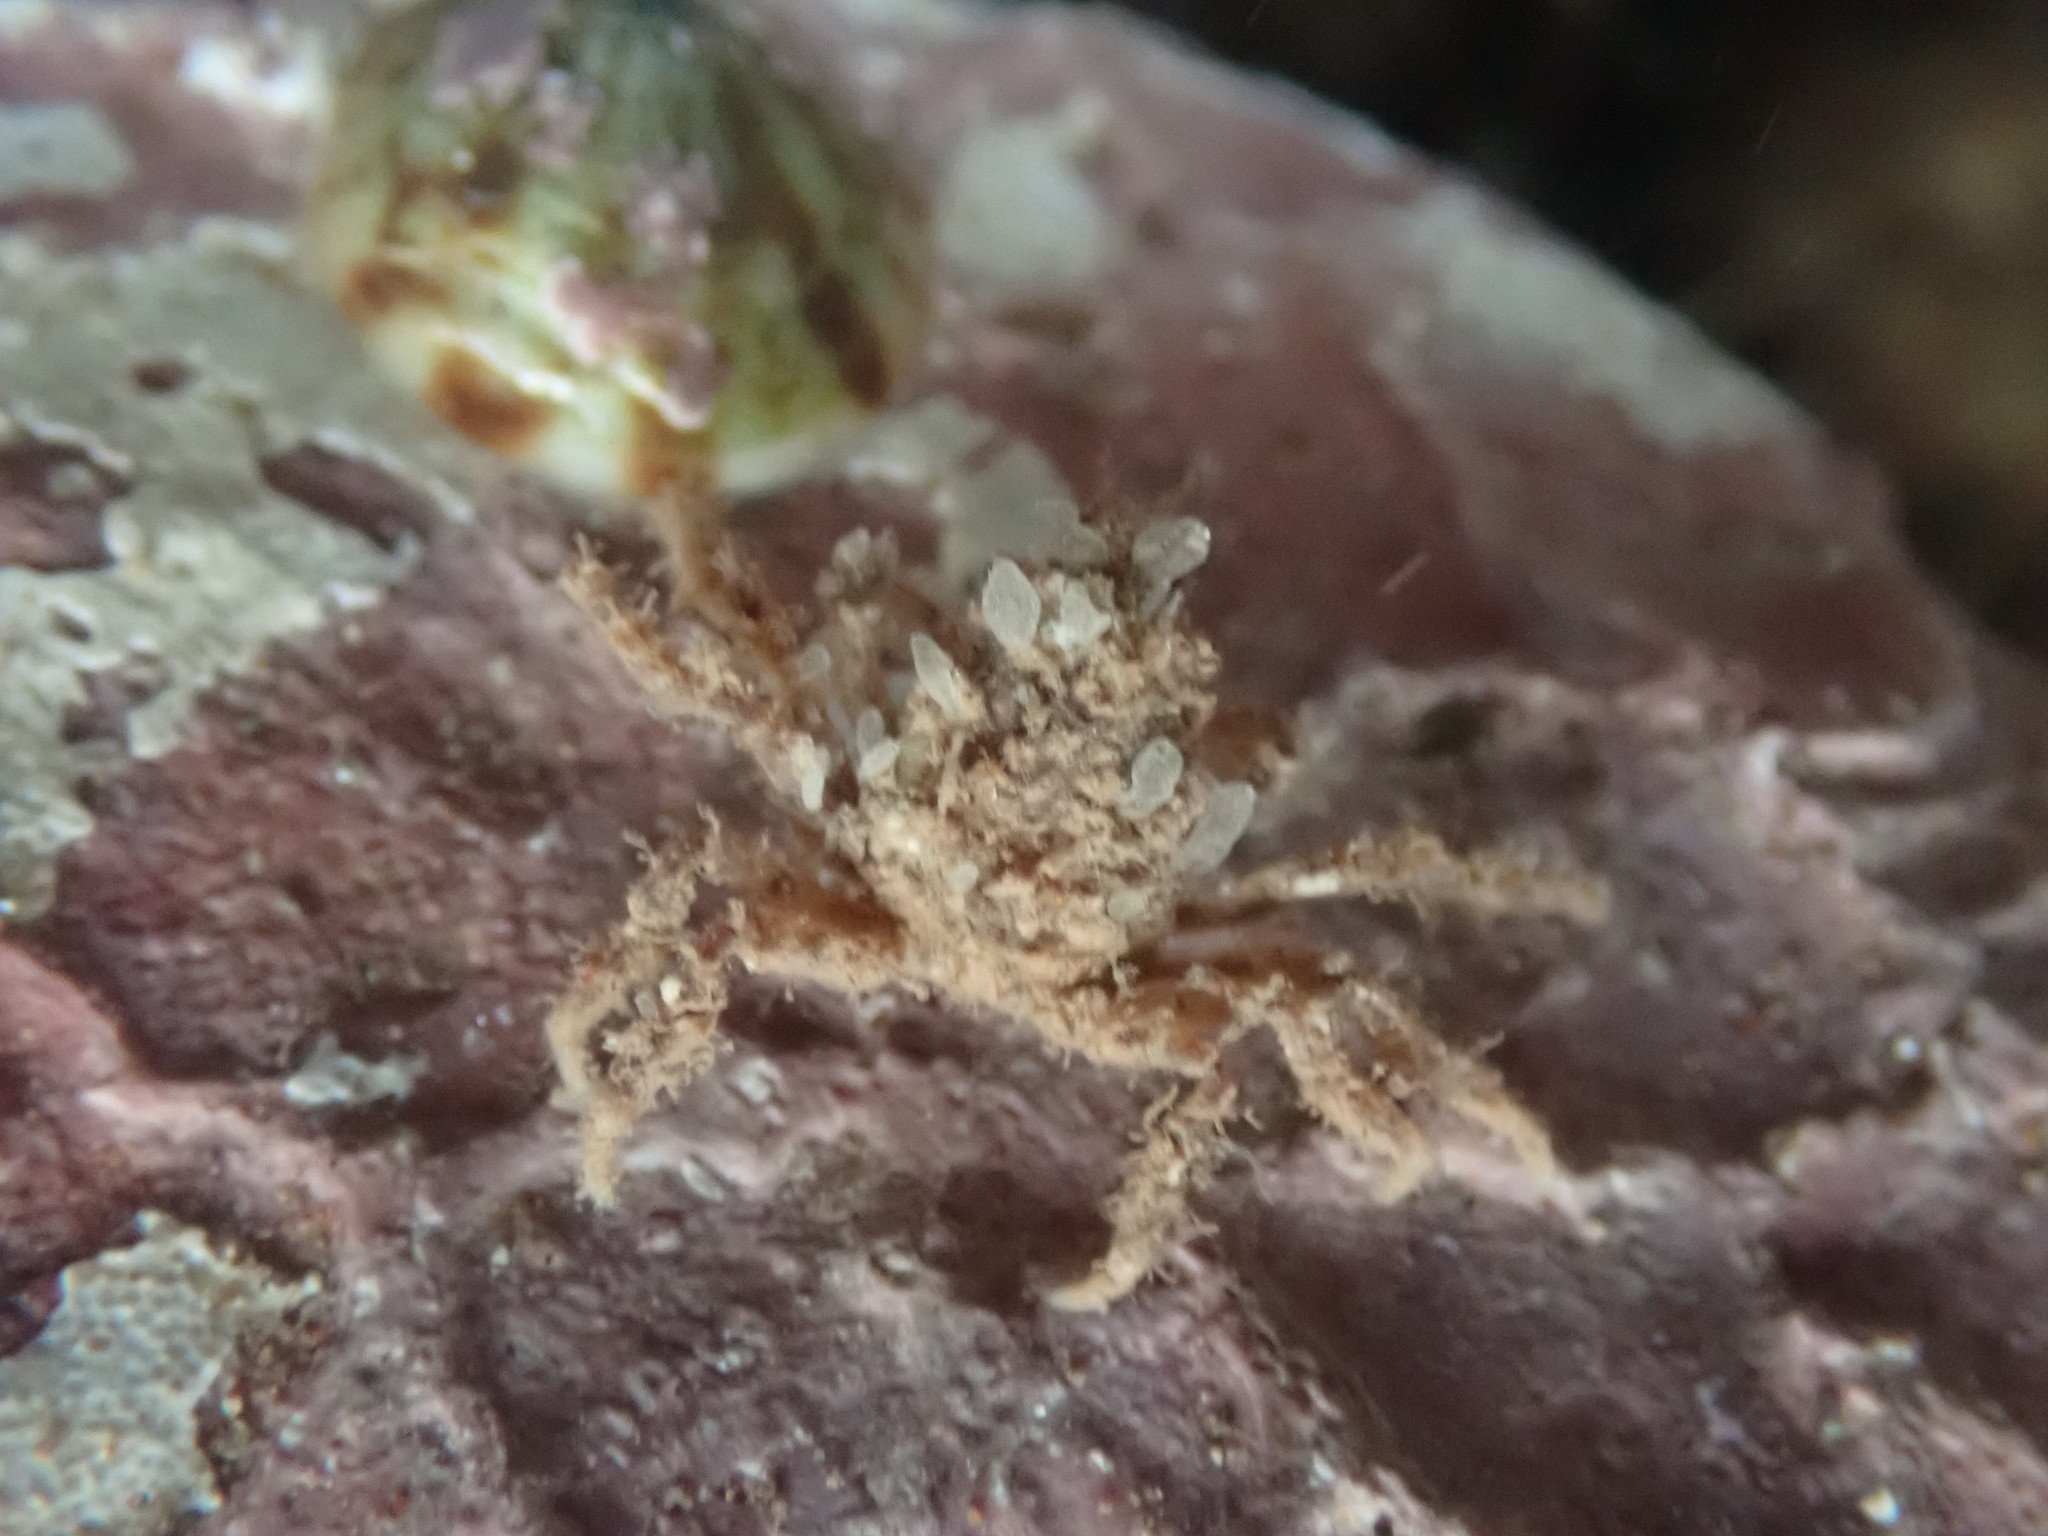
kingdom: Animalia
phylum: Arthropoda
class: Malacostraca
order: Decapoda
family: Oregoniidae
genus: Hyas
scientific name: Hyas coarctatus
